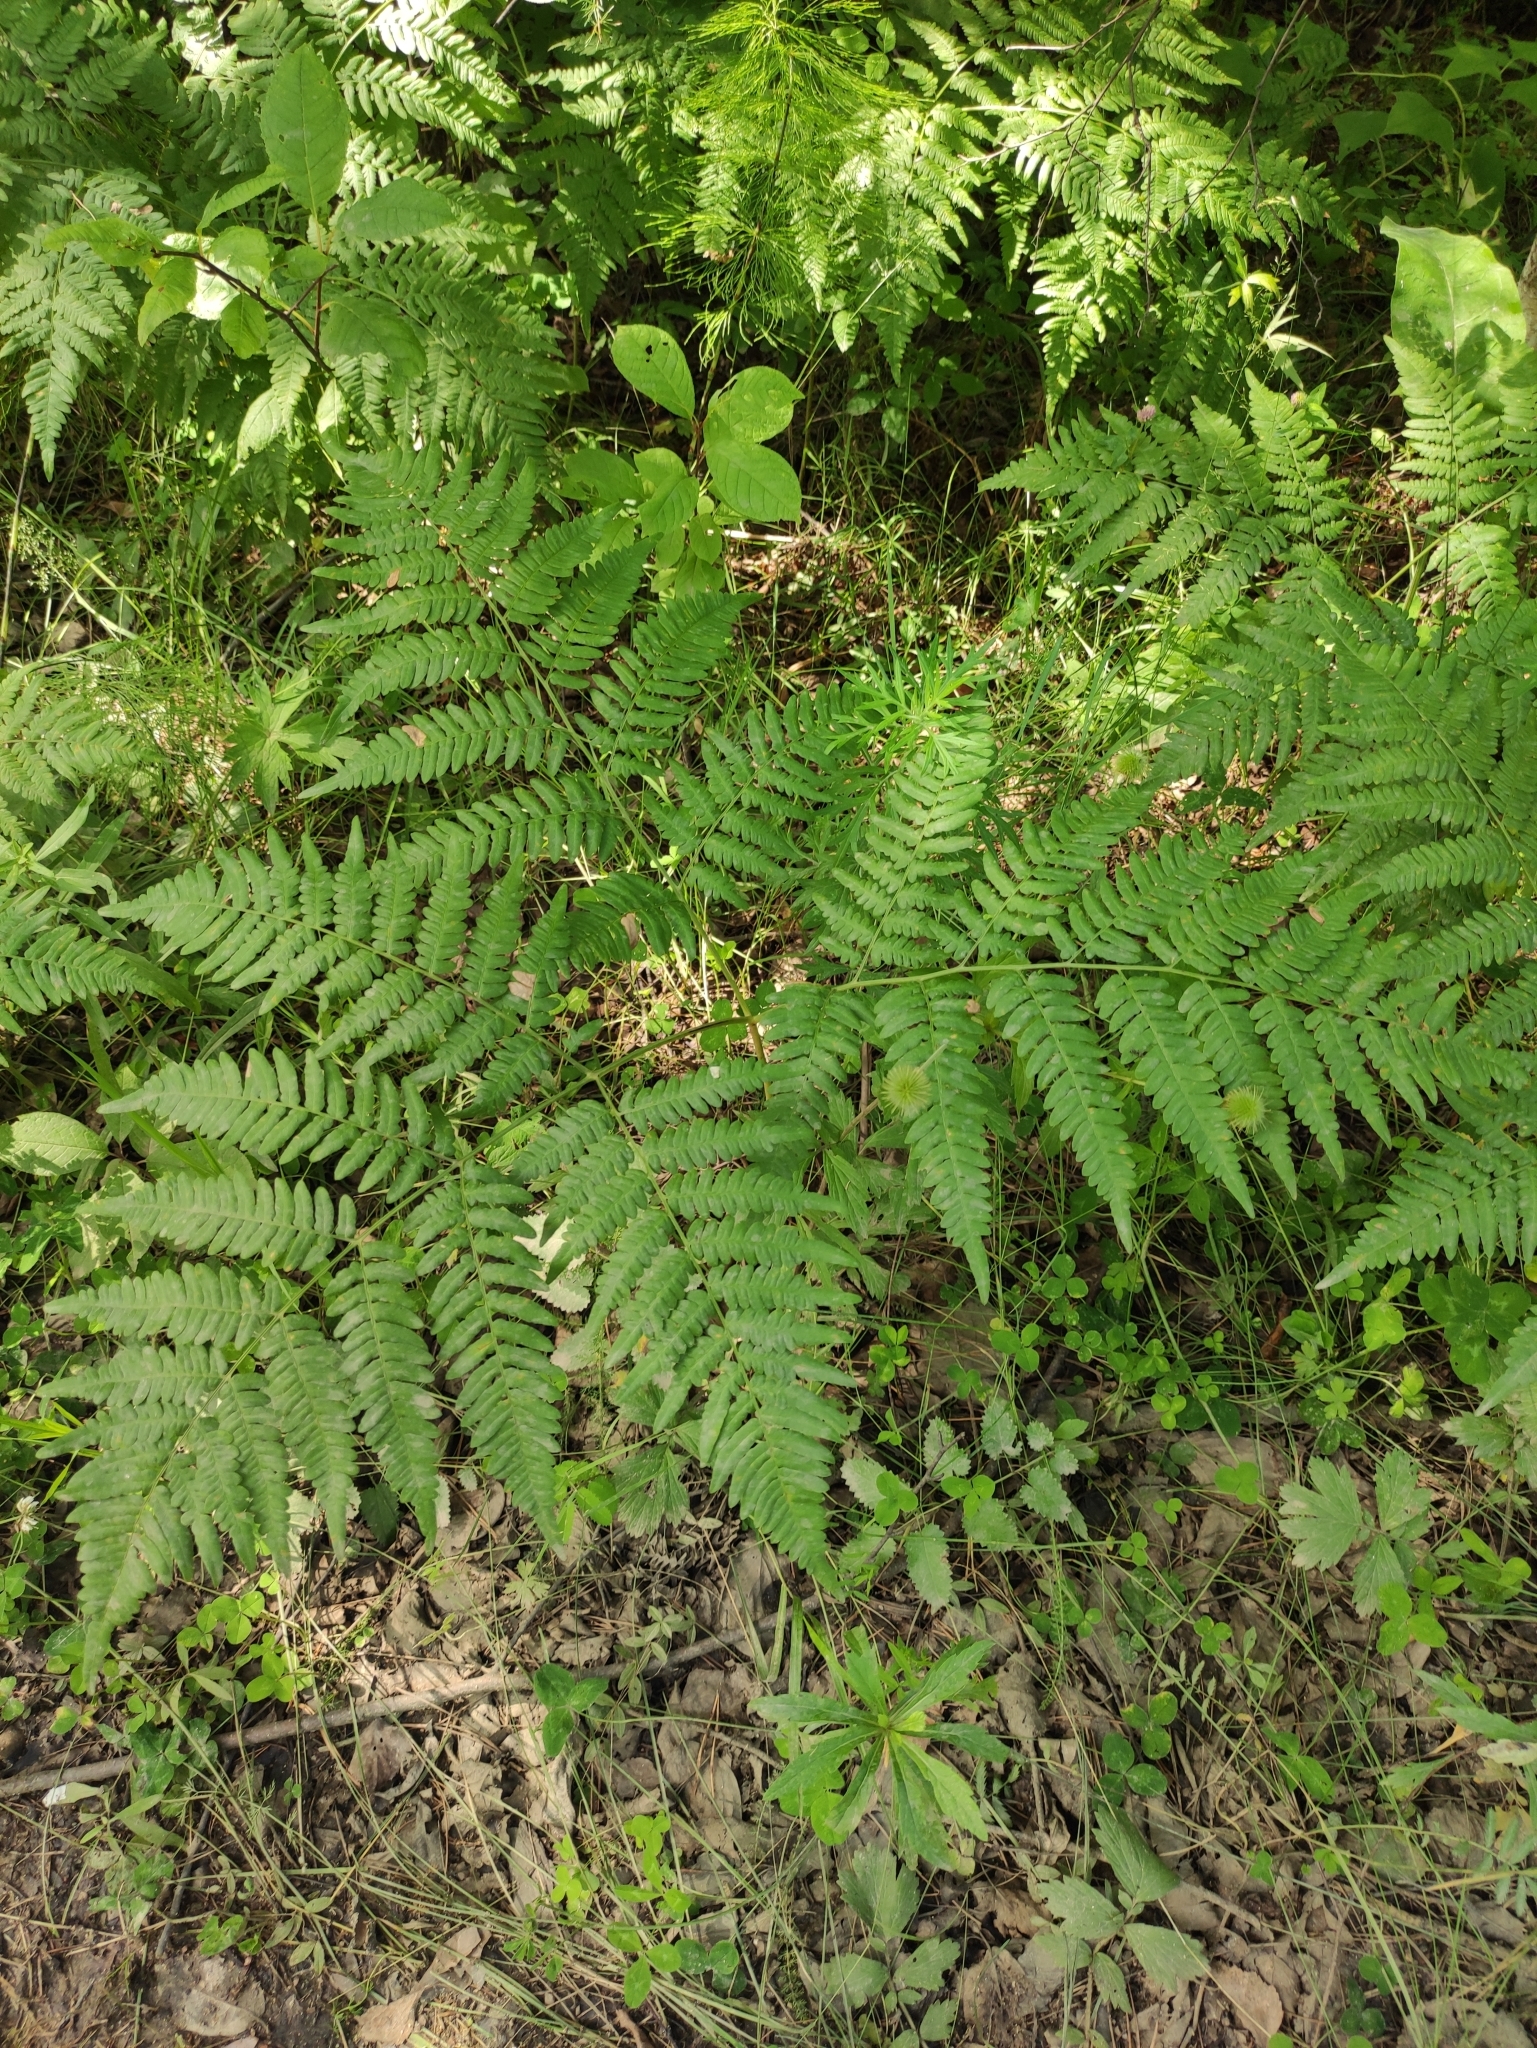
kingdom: Plantae
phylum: Tracheophyta
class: Polypodiopsida
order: Polypodiales
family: Dennstaedtiaceae
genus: Pteridium
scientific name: Pteridium aquilinum
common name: Bracken
